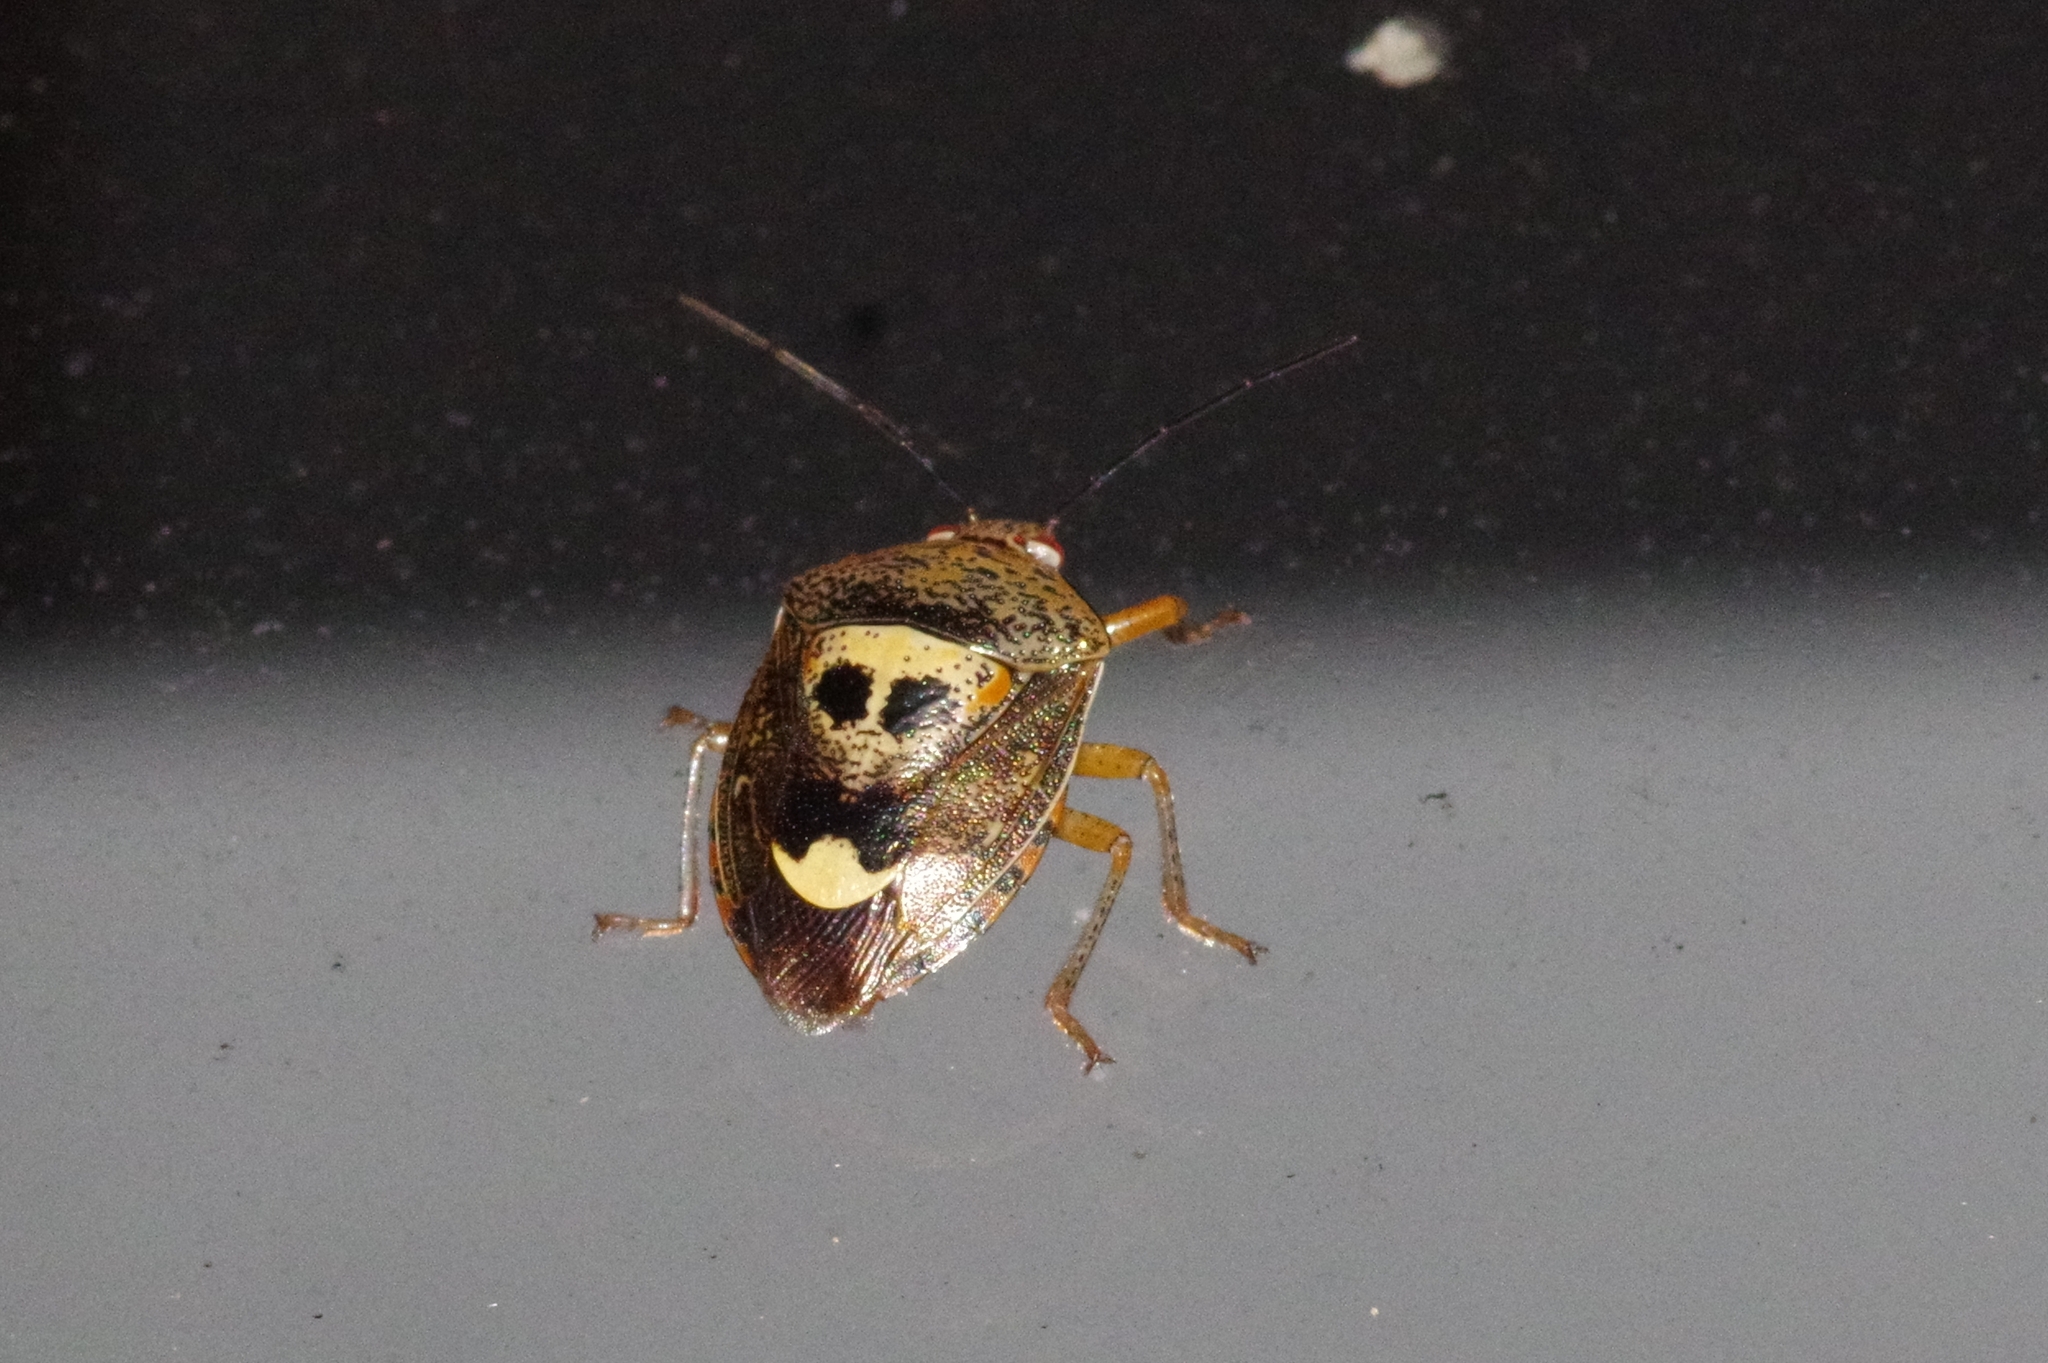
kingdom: Animalia
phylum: Arthropoda
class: Insecta
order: Hemiptera
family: Pentatomidae
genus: Axiagastus
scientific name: Axiagastus rosmarus
